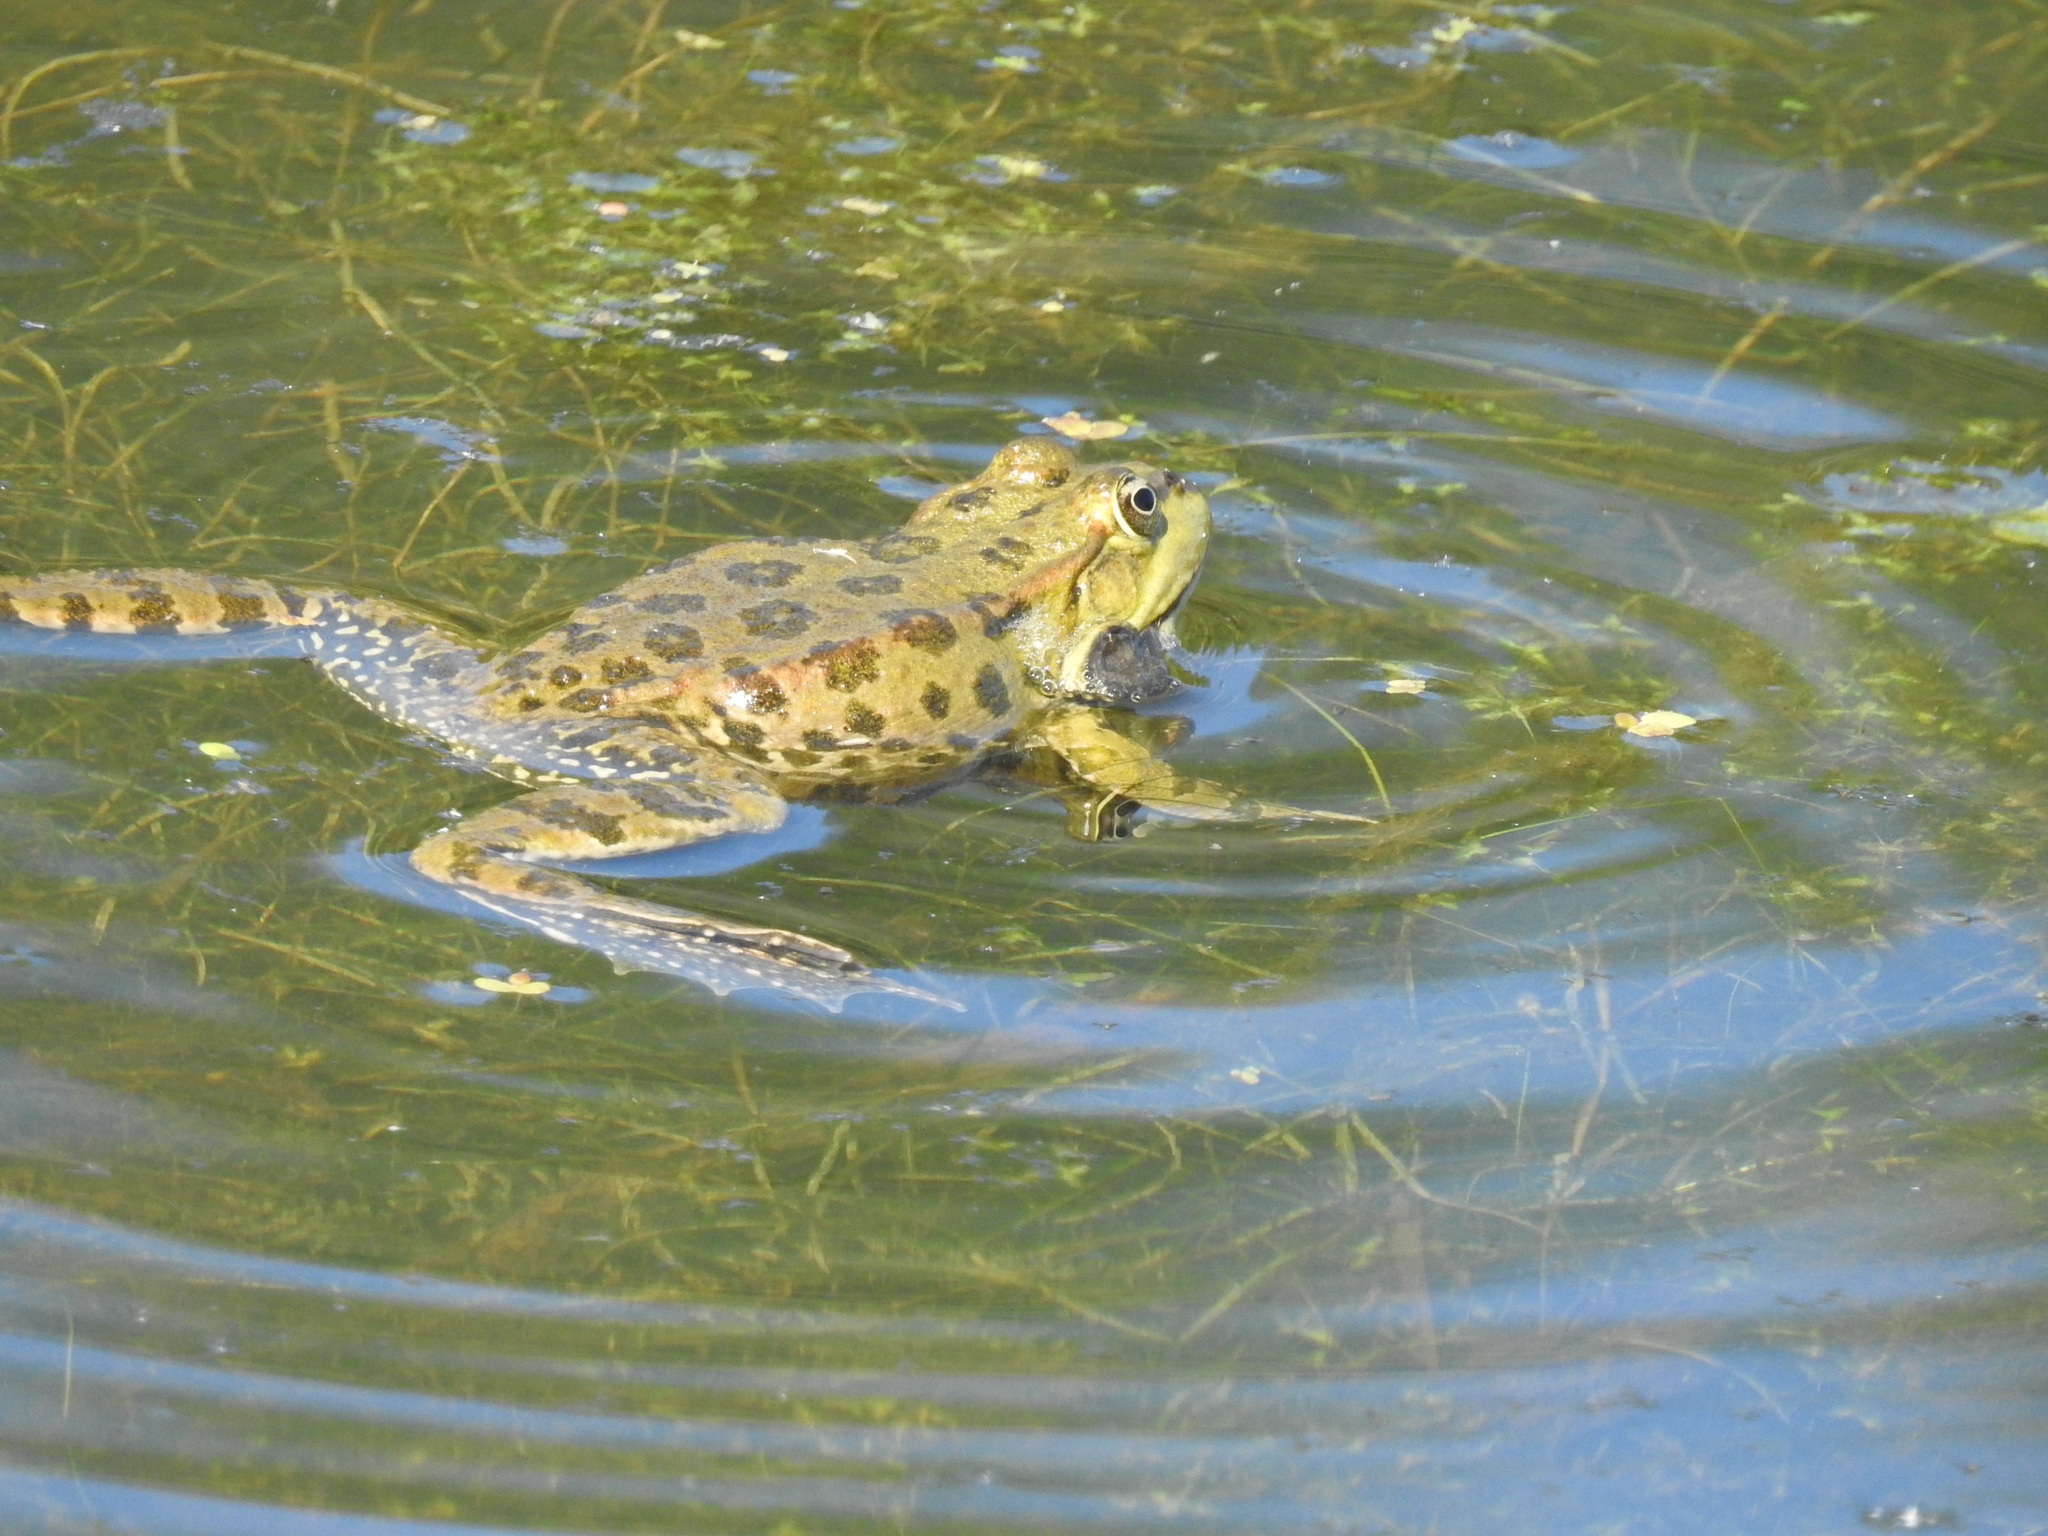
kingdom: Animalia
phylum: Chordata
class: Amphibia
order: Anura
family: Ranidae
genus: Pelophylax
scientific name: Pelophylax ridibundus
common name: Marsh frog
